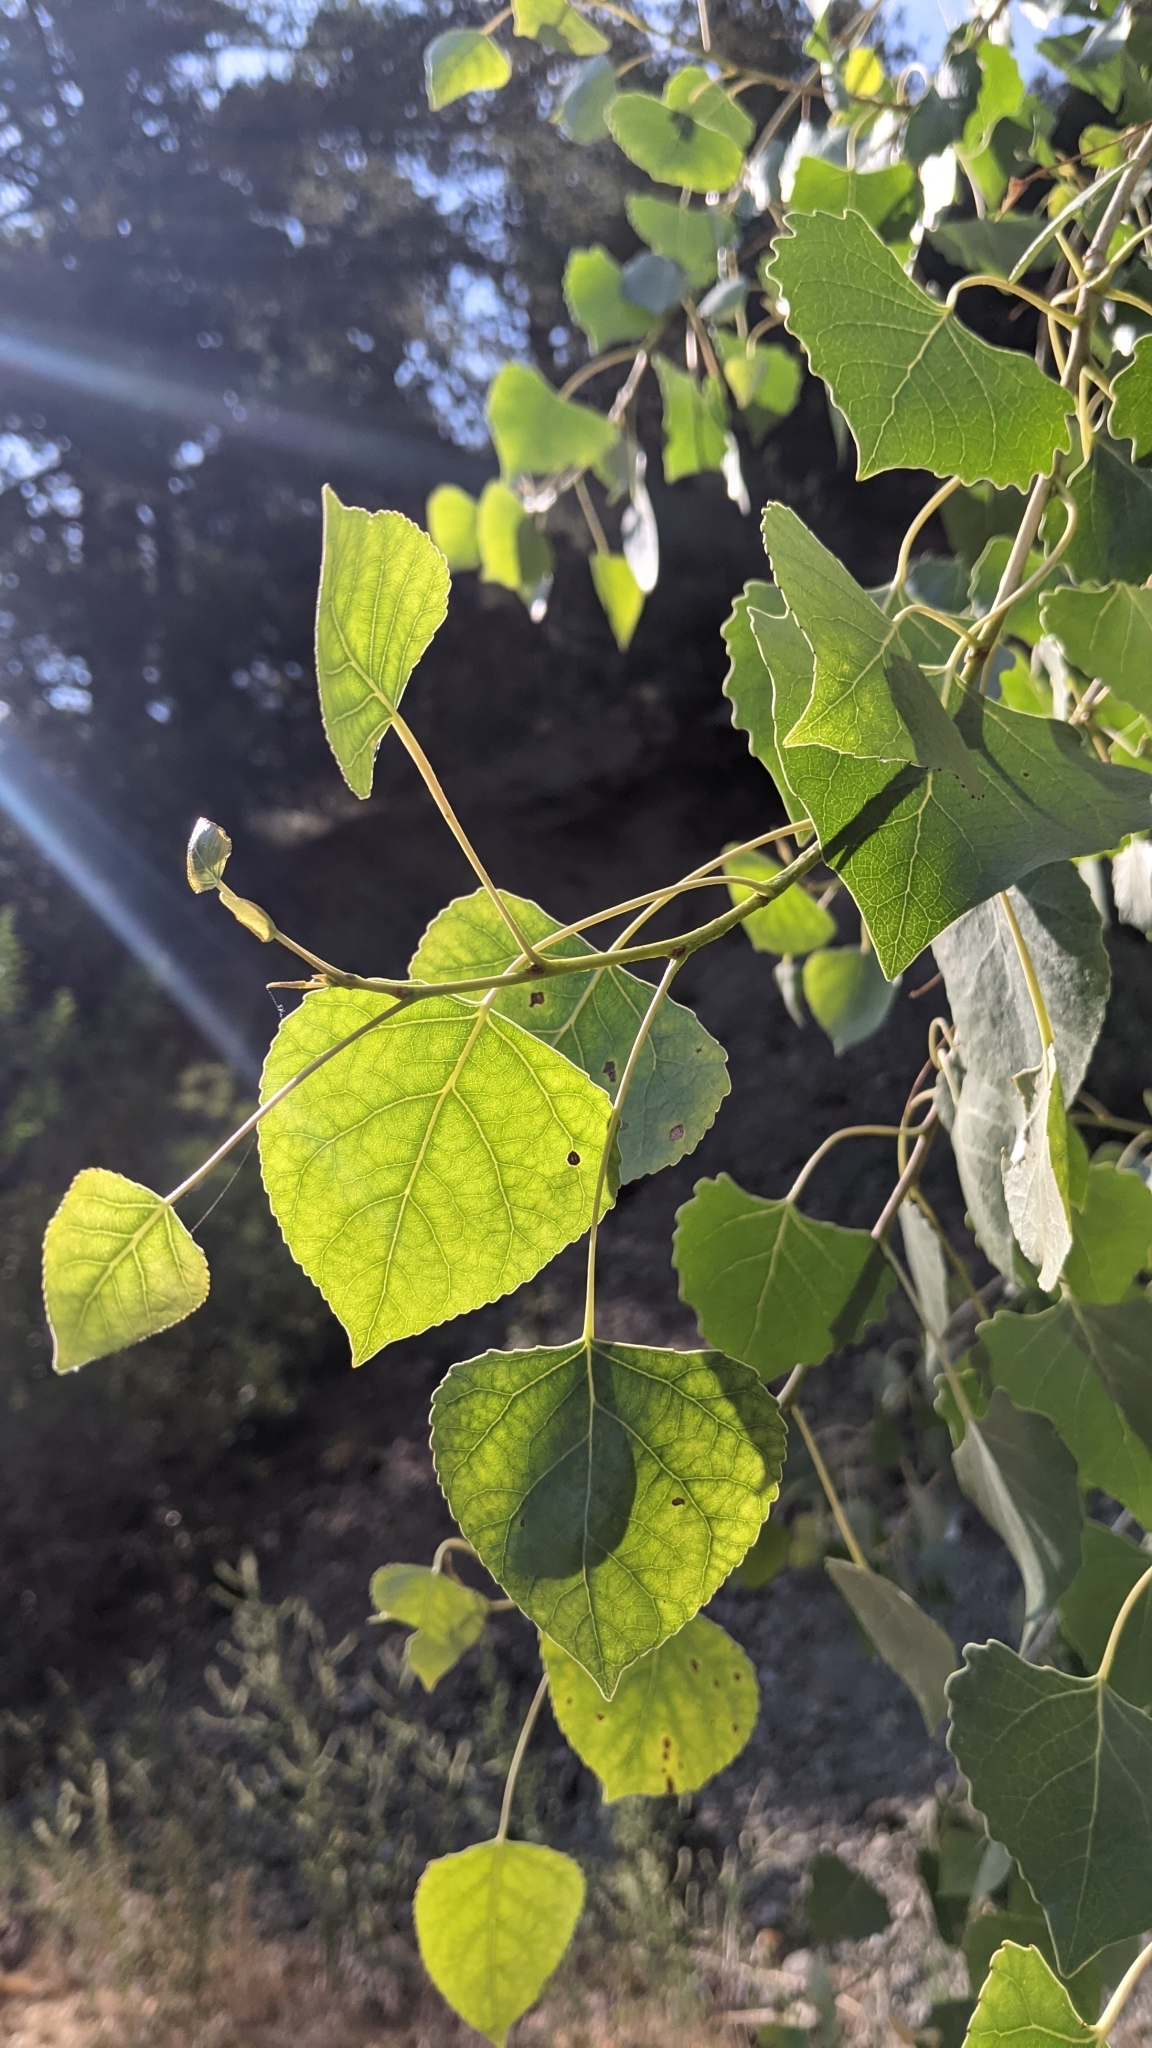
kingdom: Plantae
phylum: Tracheophyta
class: Magnoliopsida
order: Malpighiales
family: Salicaceae
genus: Populus
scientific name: Populus fremontii
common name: Fremont's cottonwood
